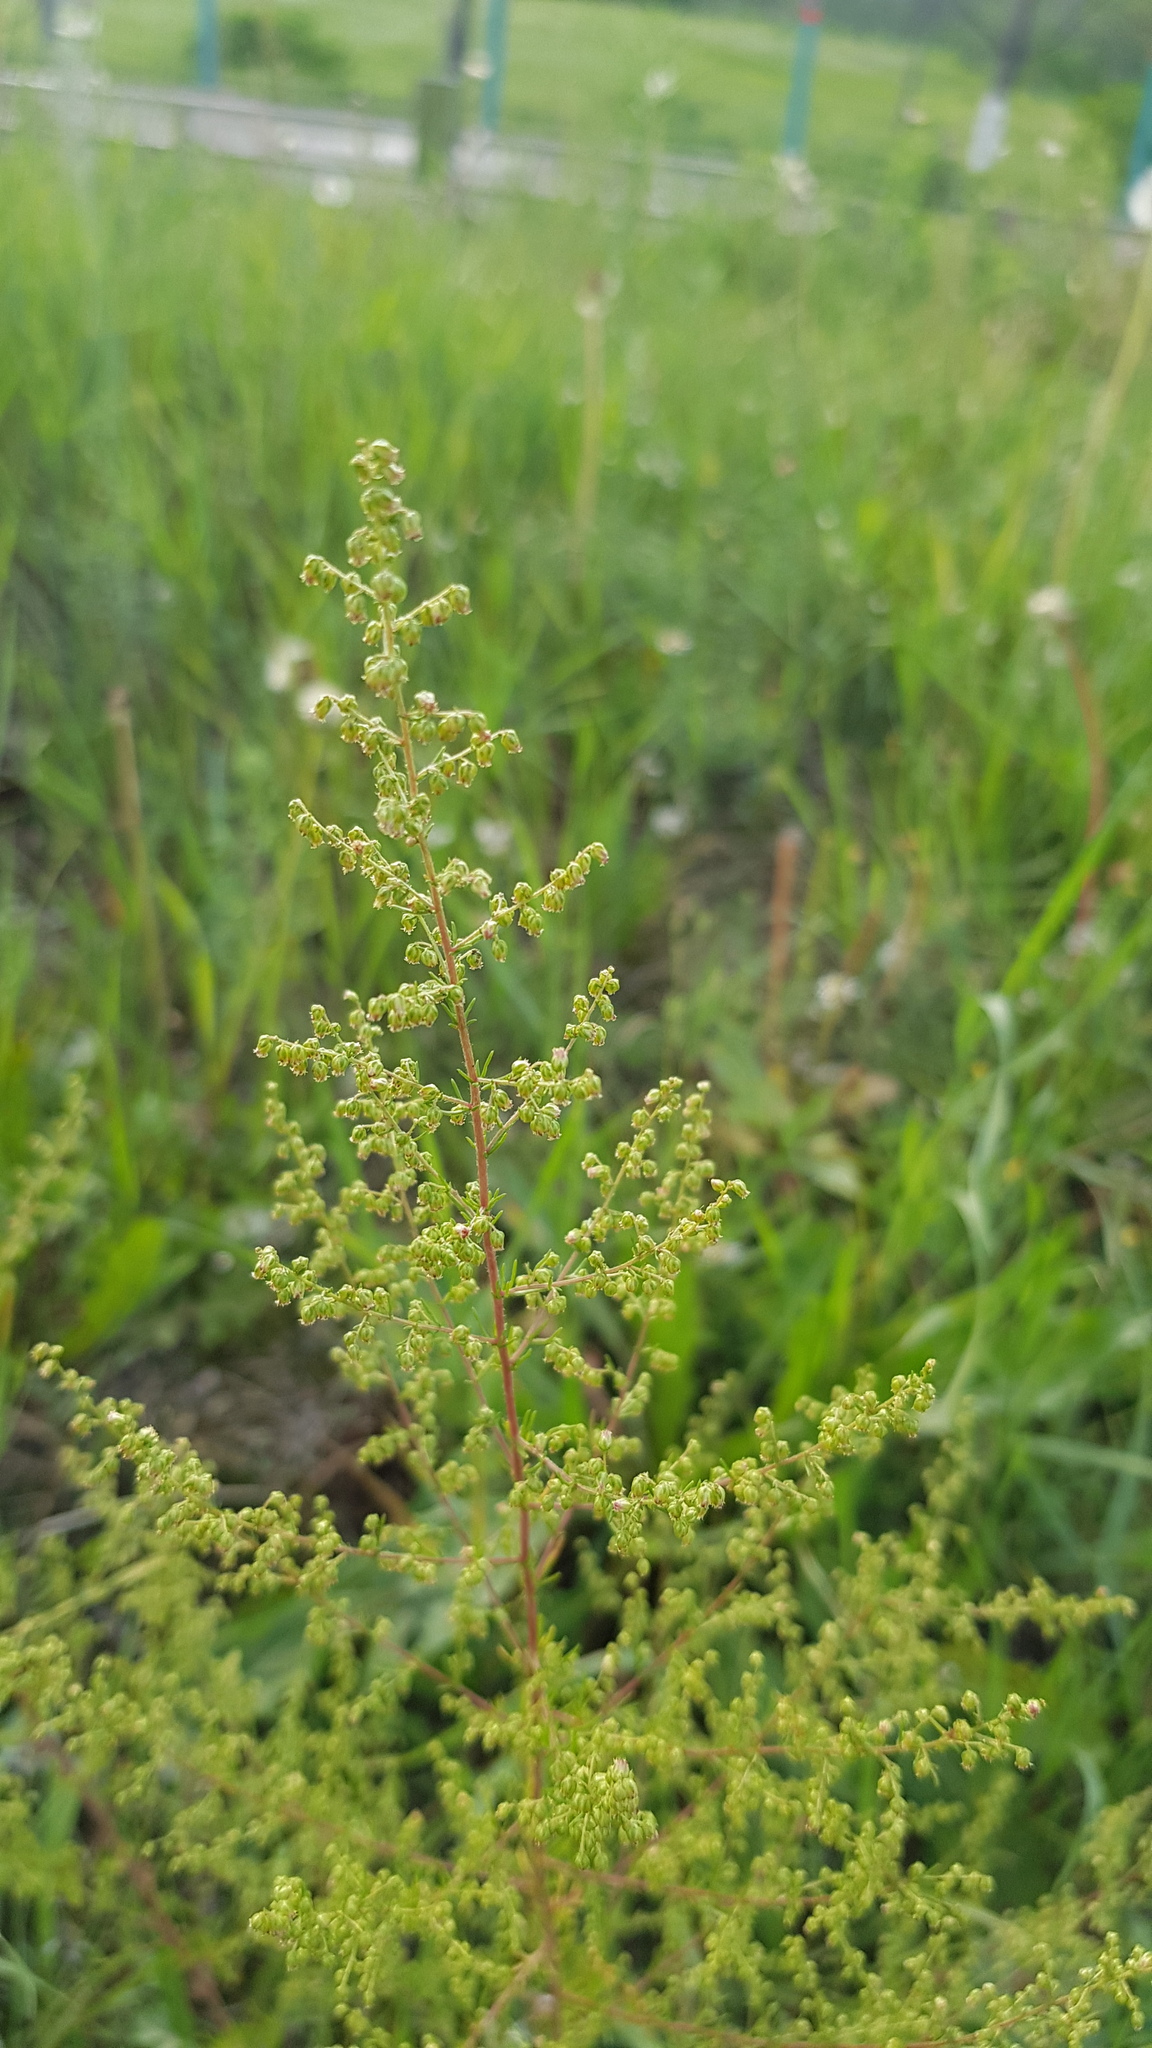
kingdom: Plantae
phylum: Tracheophyta
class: Magnoliopsida
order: Asterales
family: Asteraceae
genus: Artemisia
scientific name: Artemisia scoparia
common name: Redstem wormwood
